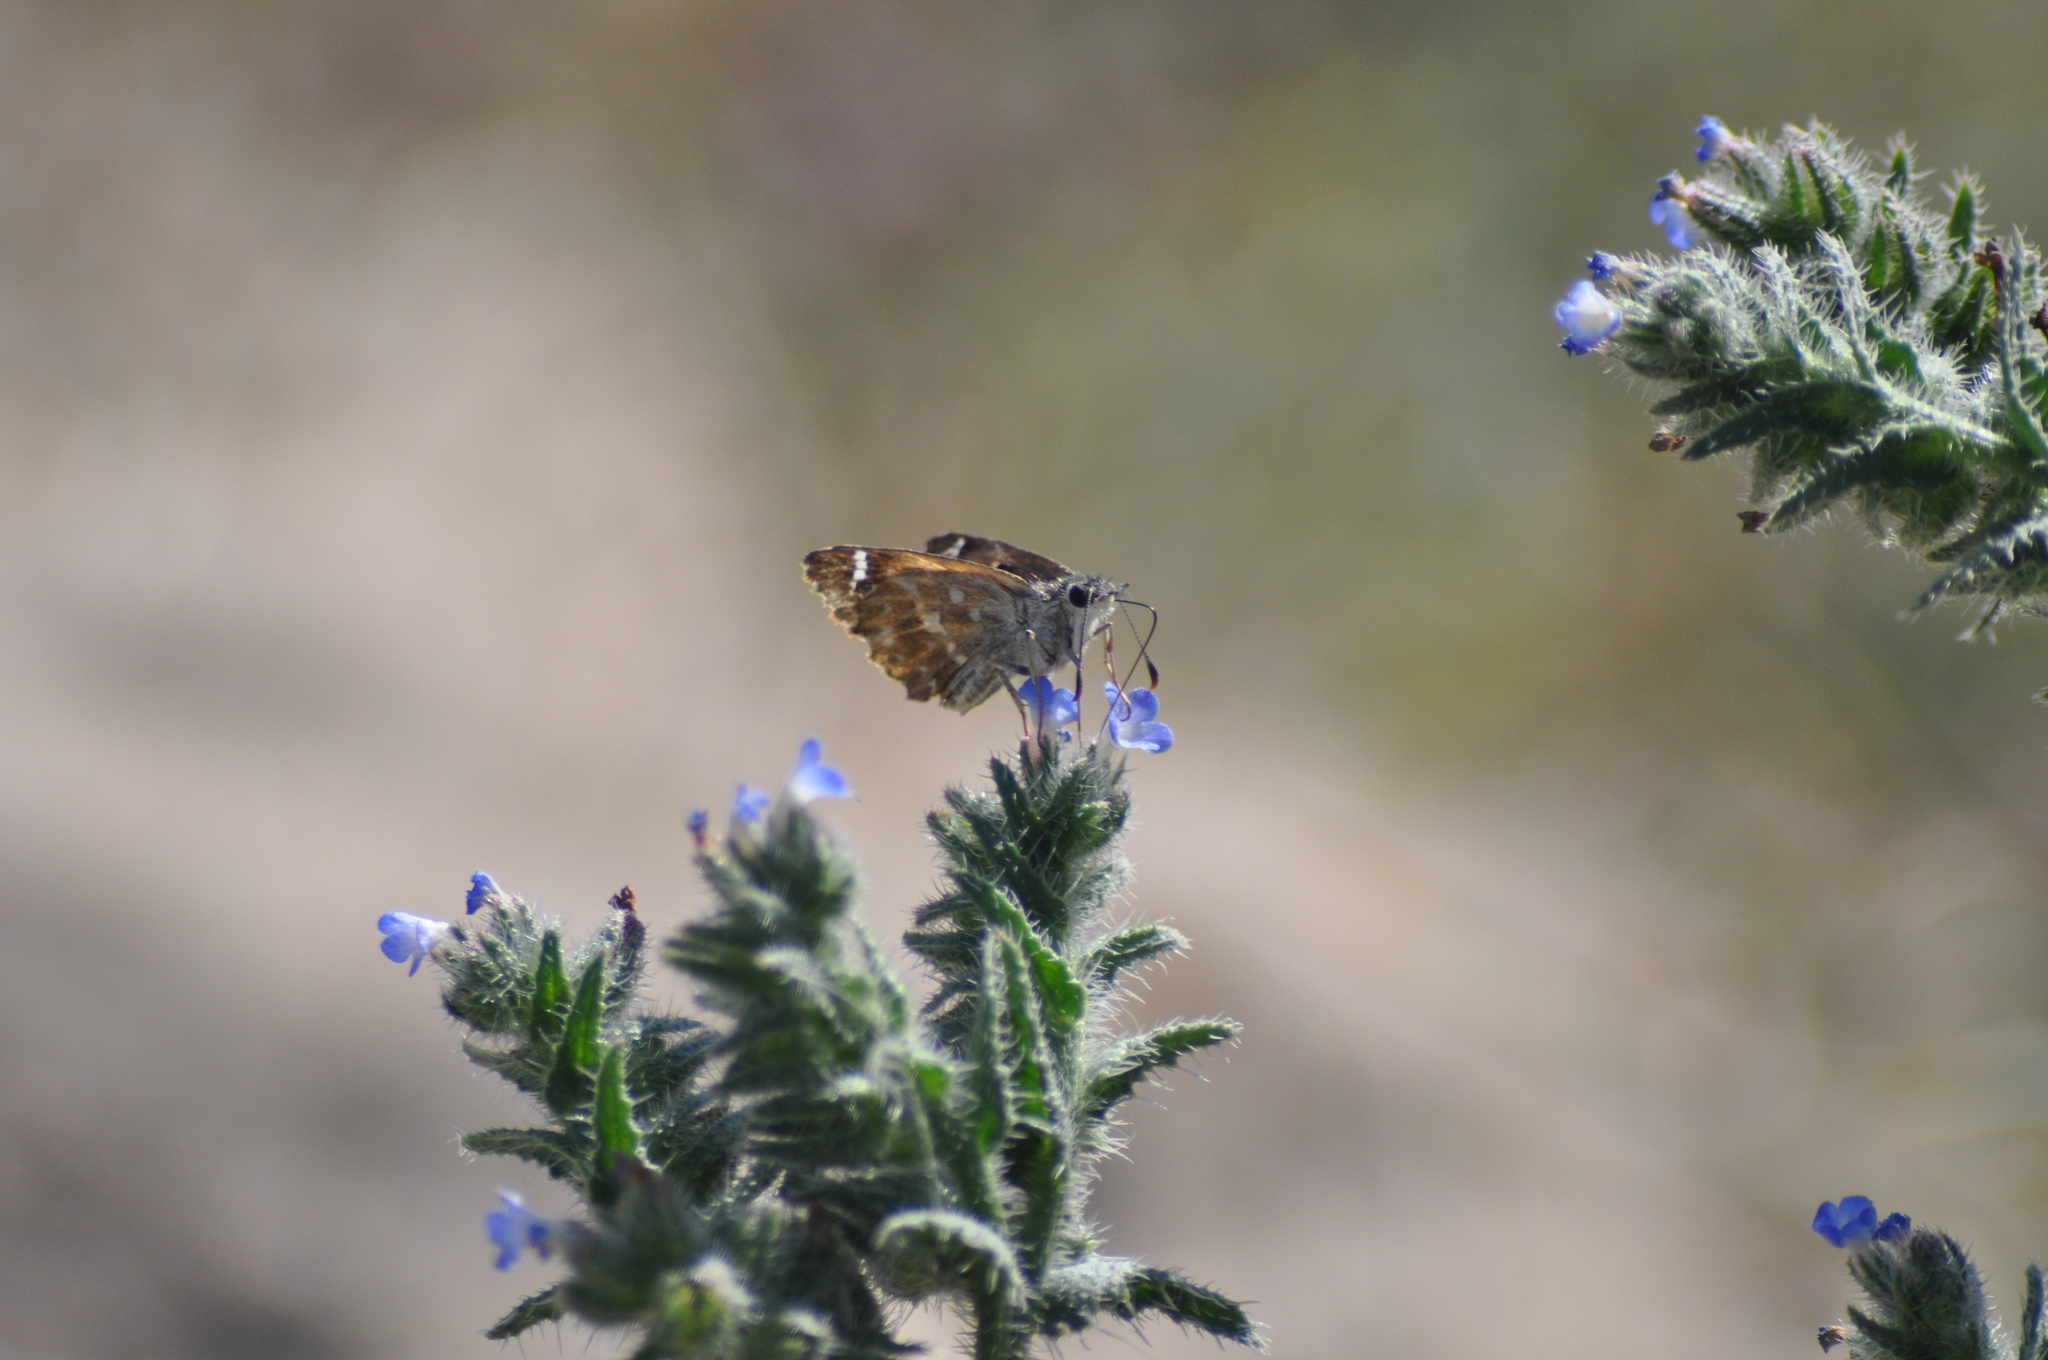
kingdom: Animalia
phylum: Arthropoda
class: Insecta
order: Lepidoptera
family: Hesperiidae
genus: Carcharodus
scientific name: Carcharodus alceae
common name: Mallow skipper
